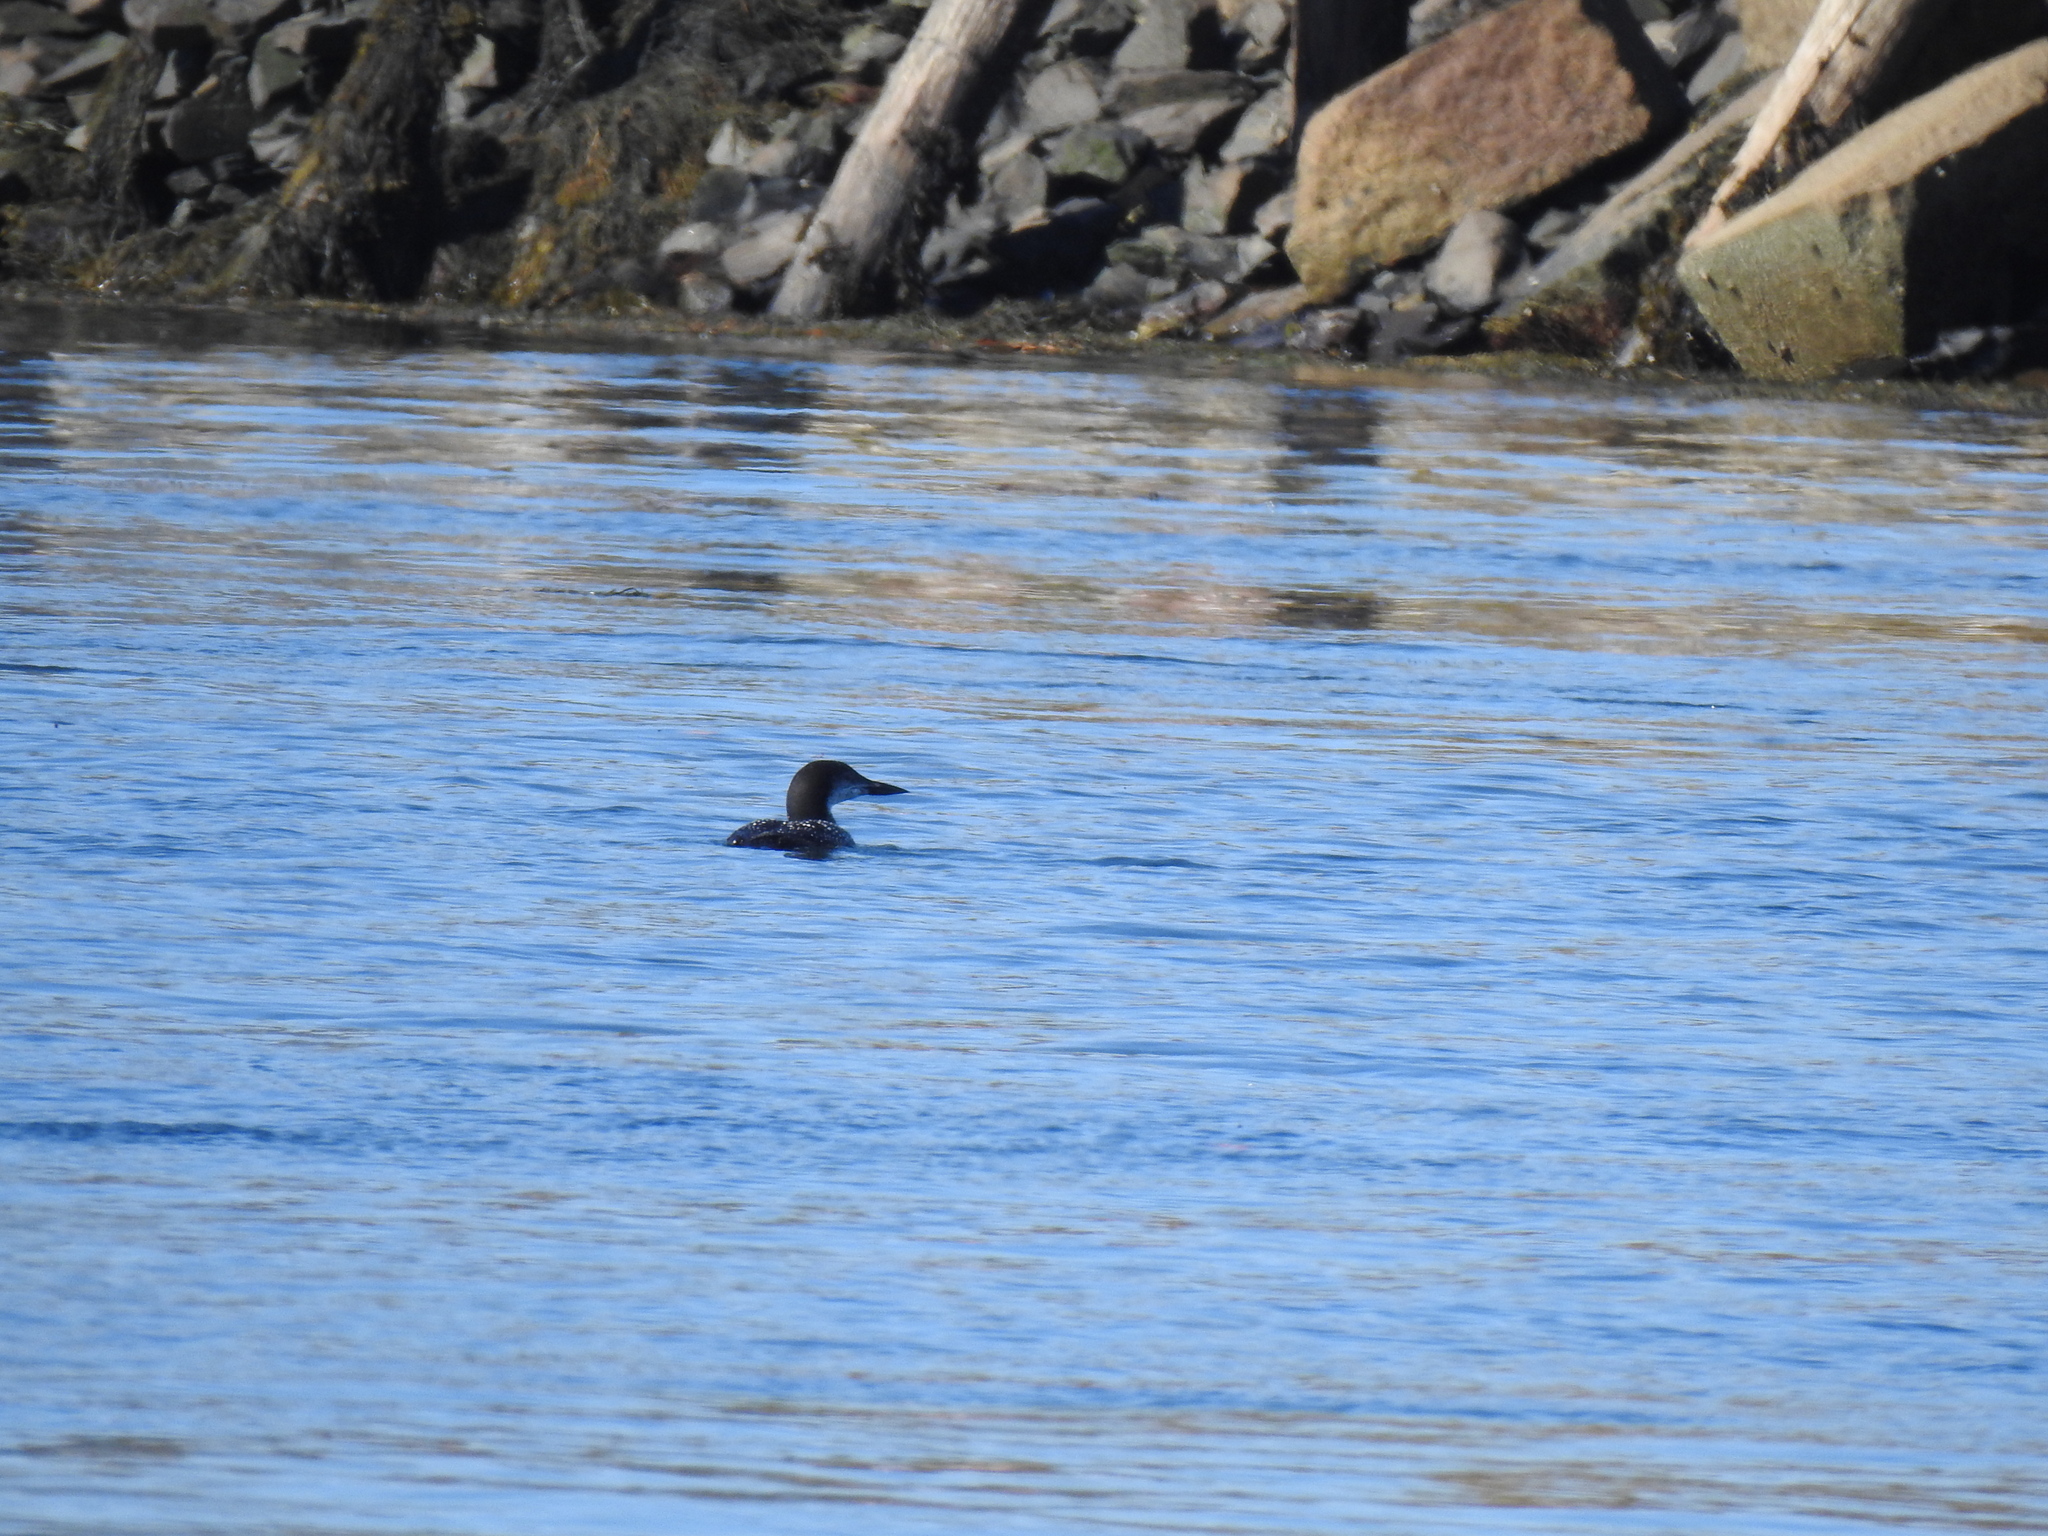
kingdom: Animalia
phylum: Chordata
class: Aves
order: Gaviiformes
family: Gaviidae
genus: Gavia
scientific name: Gavia immer
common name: Common loon
